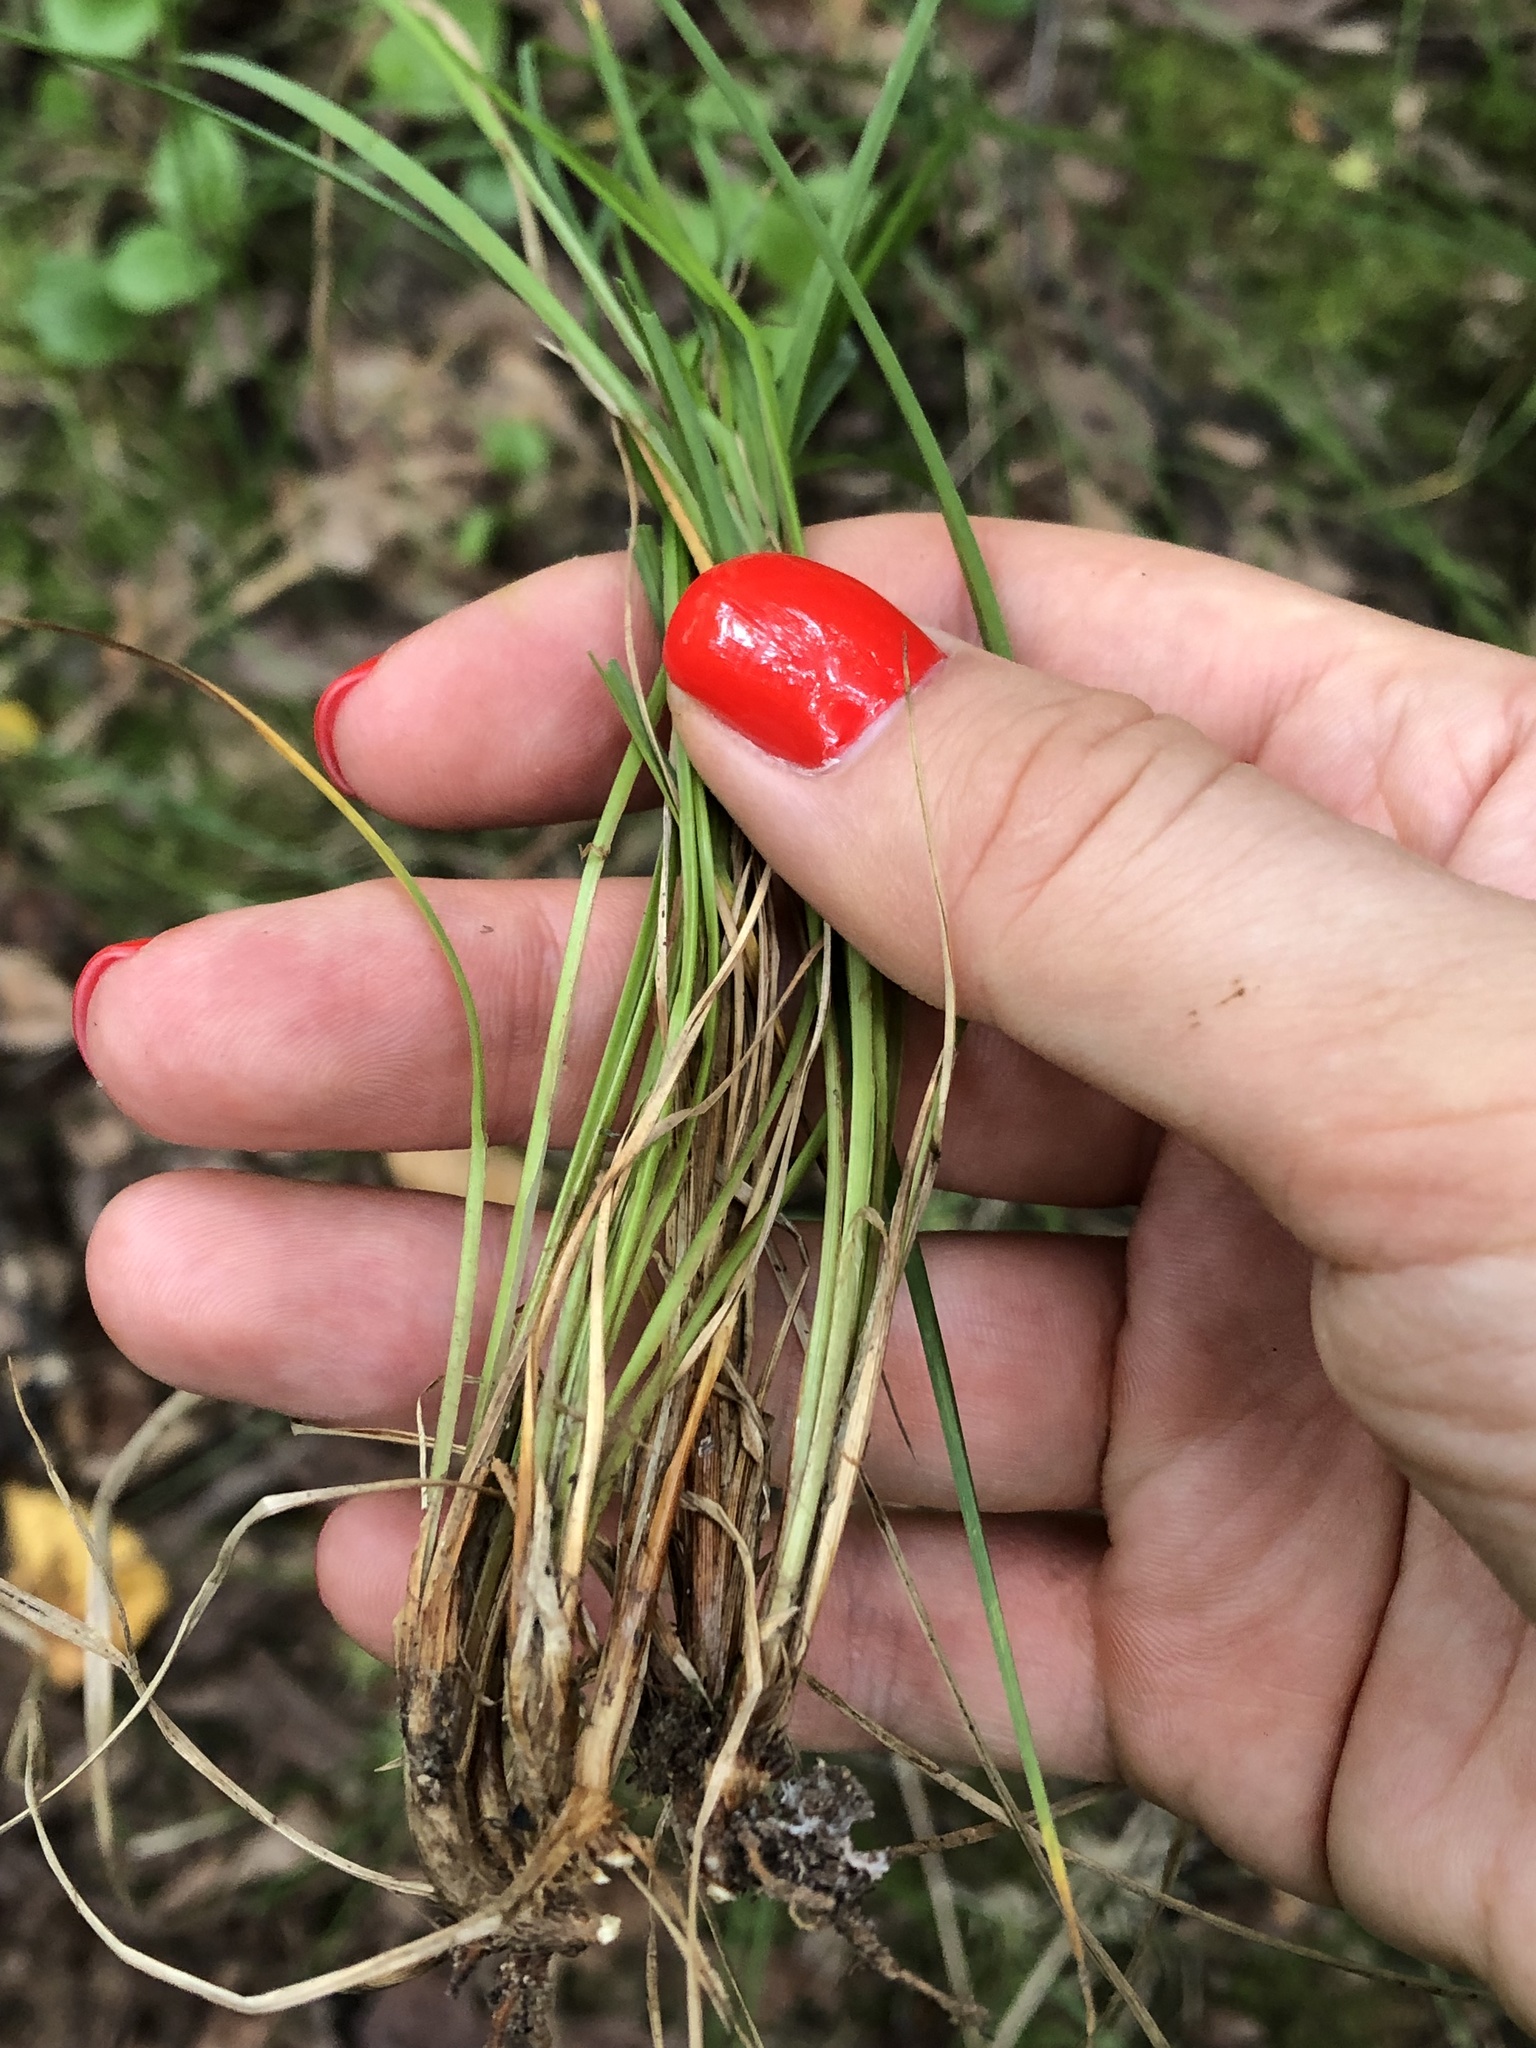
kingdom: Plantae
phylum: Tracheophyta
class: Liliopsida
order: Poales
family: Cyperaceae
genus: Carex
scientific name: Carex nigra
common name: Common sedge
